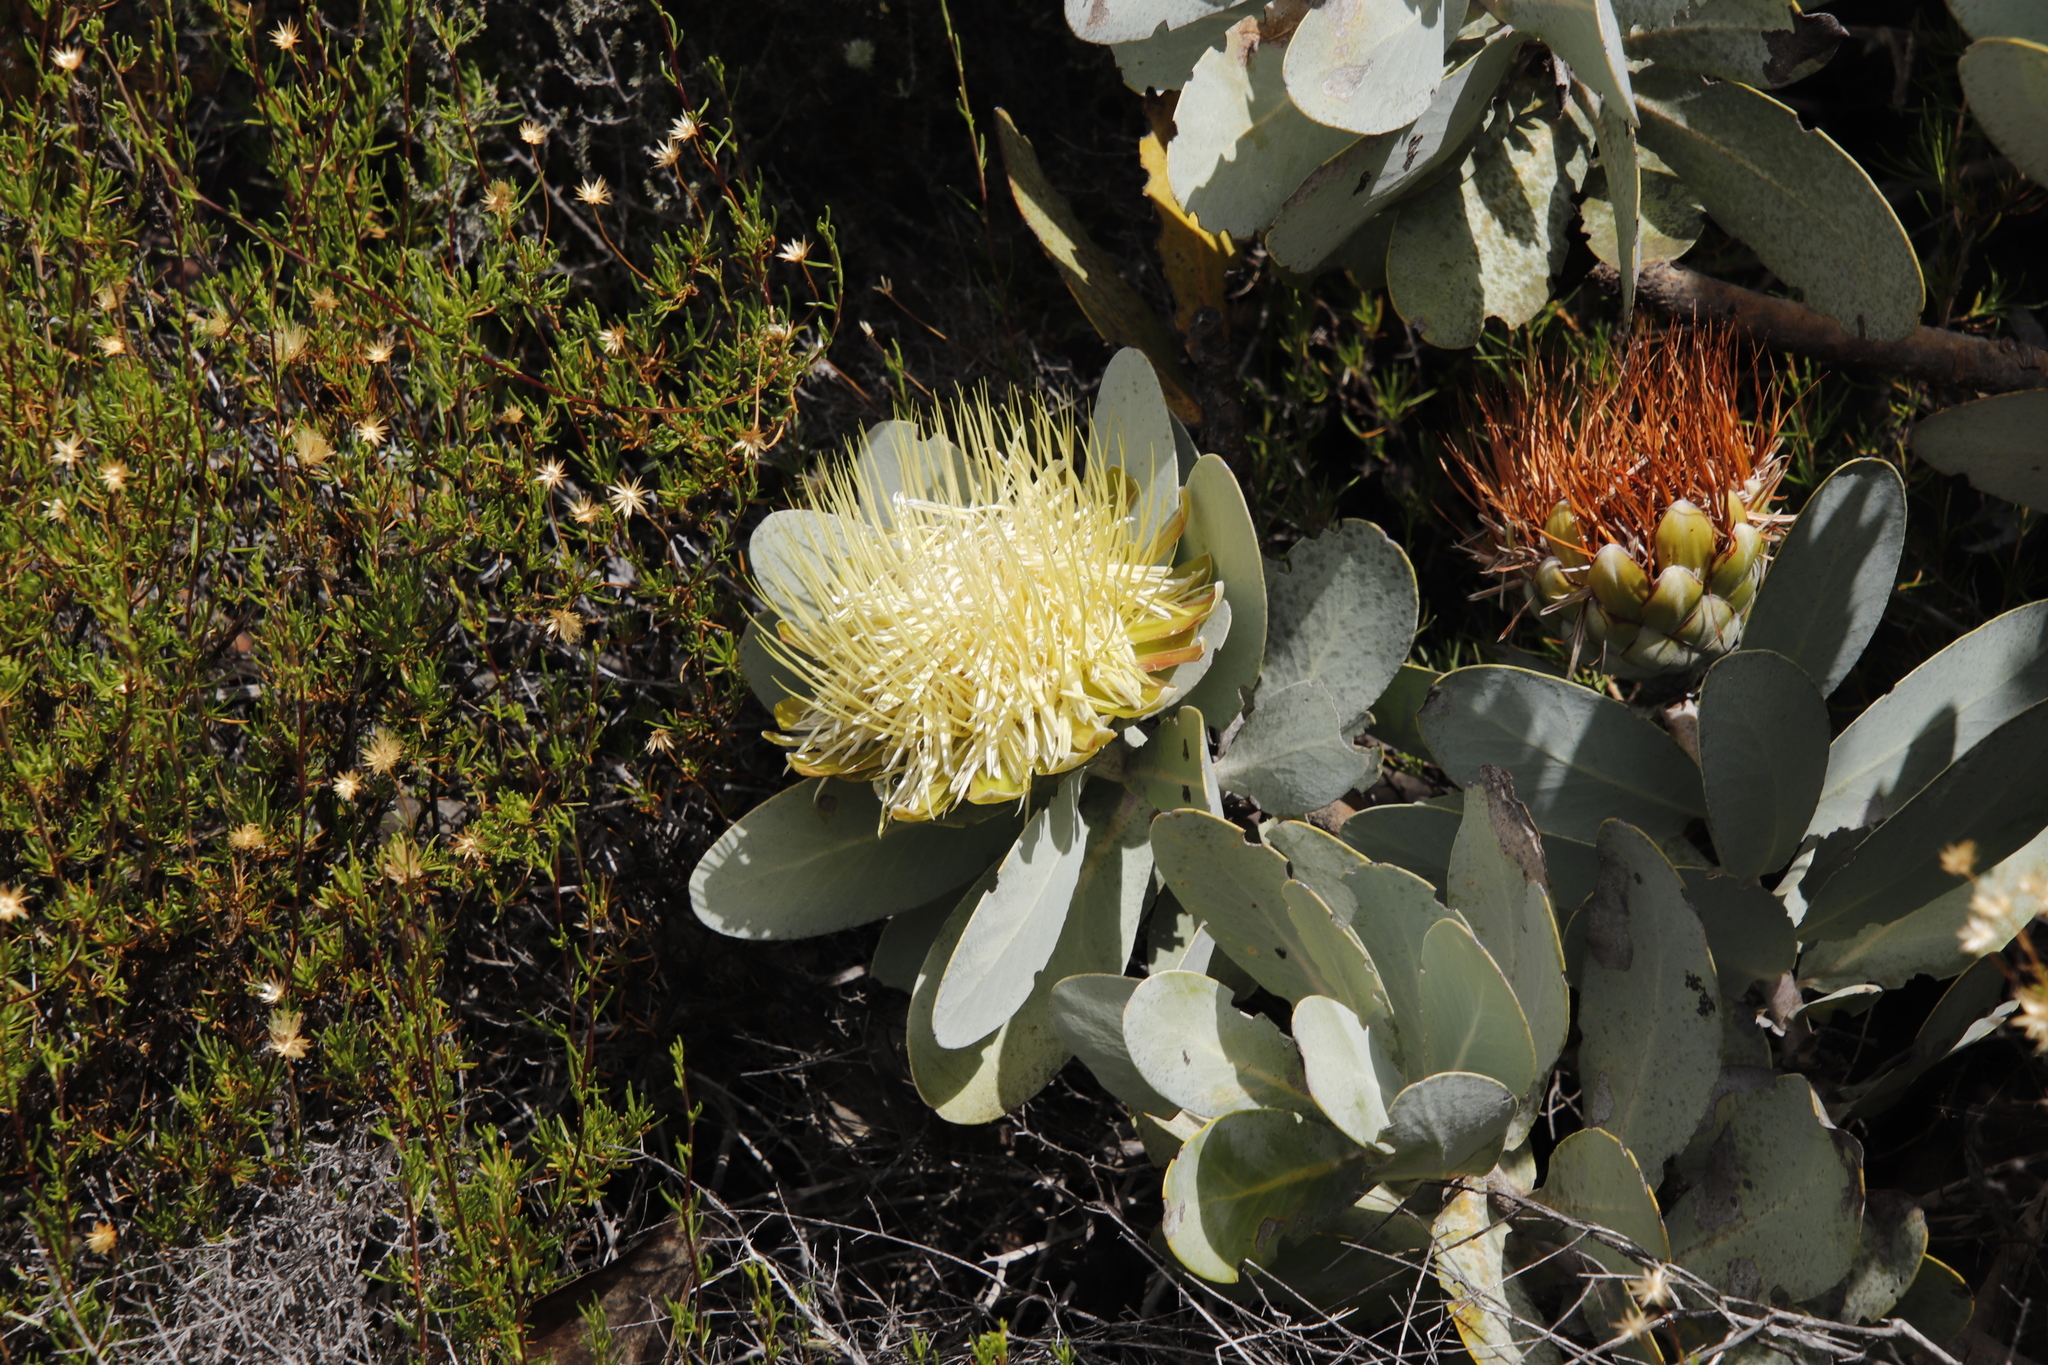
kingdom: Plantae
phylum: Tracheophyta
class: Magnoliopsida
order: Proteales
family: Proteaceae
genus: Protea
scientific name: Protea nitida
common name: Tree protea
